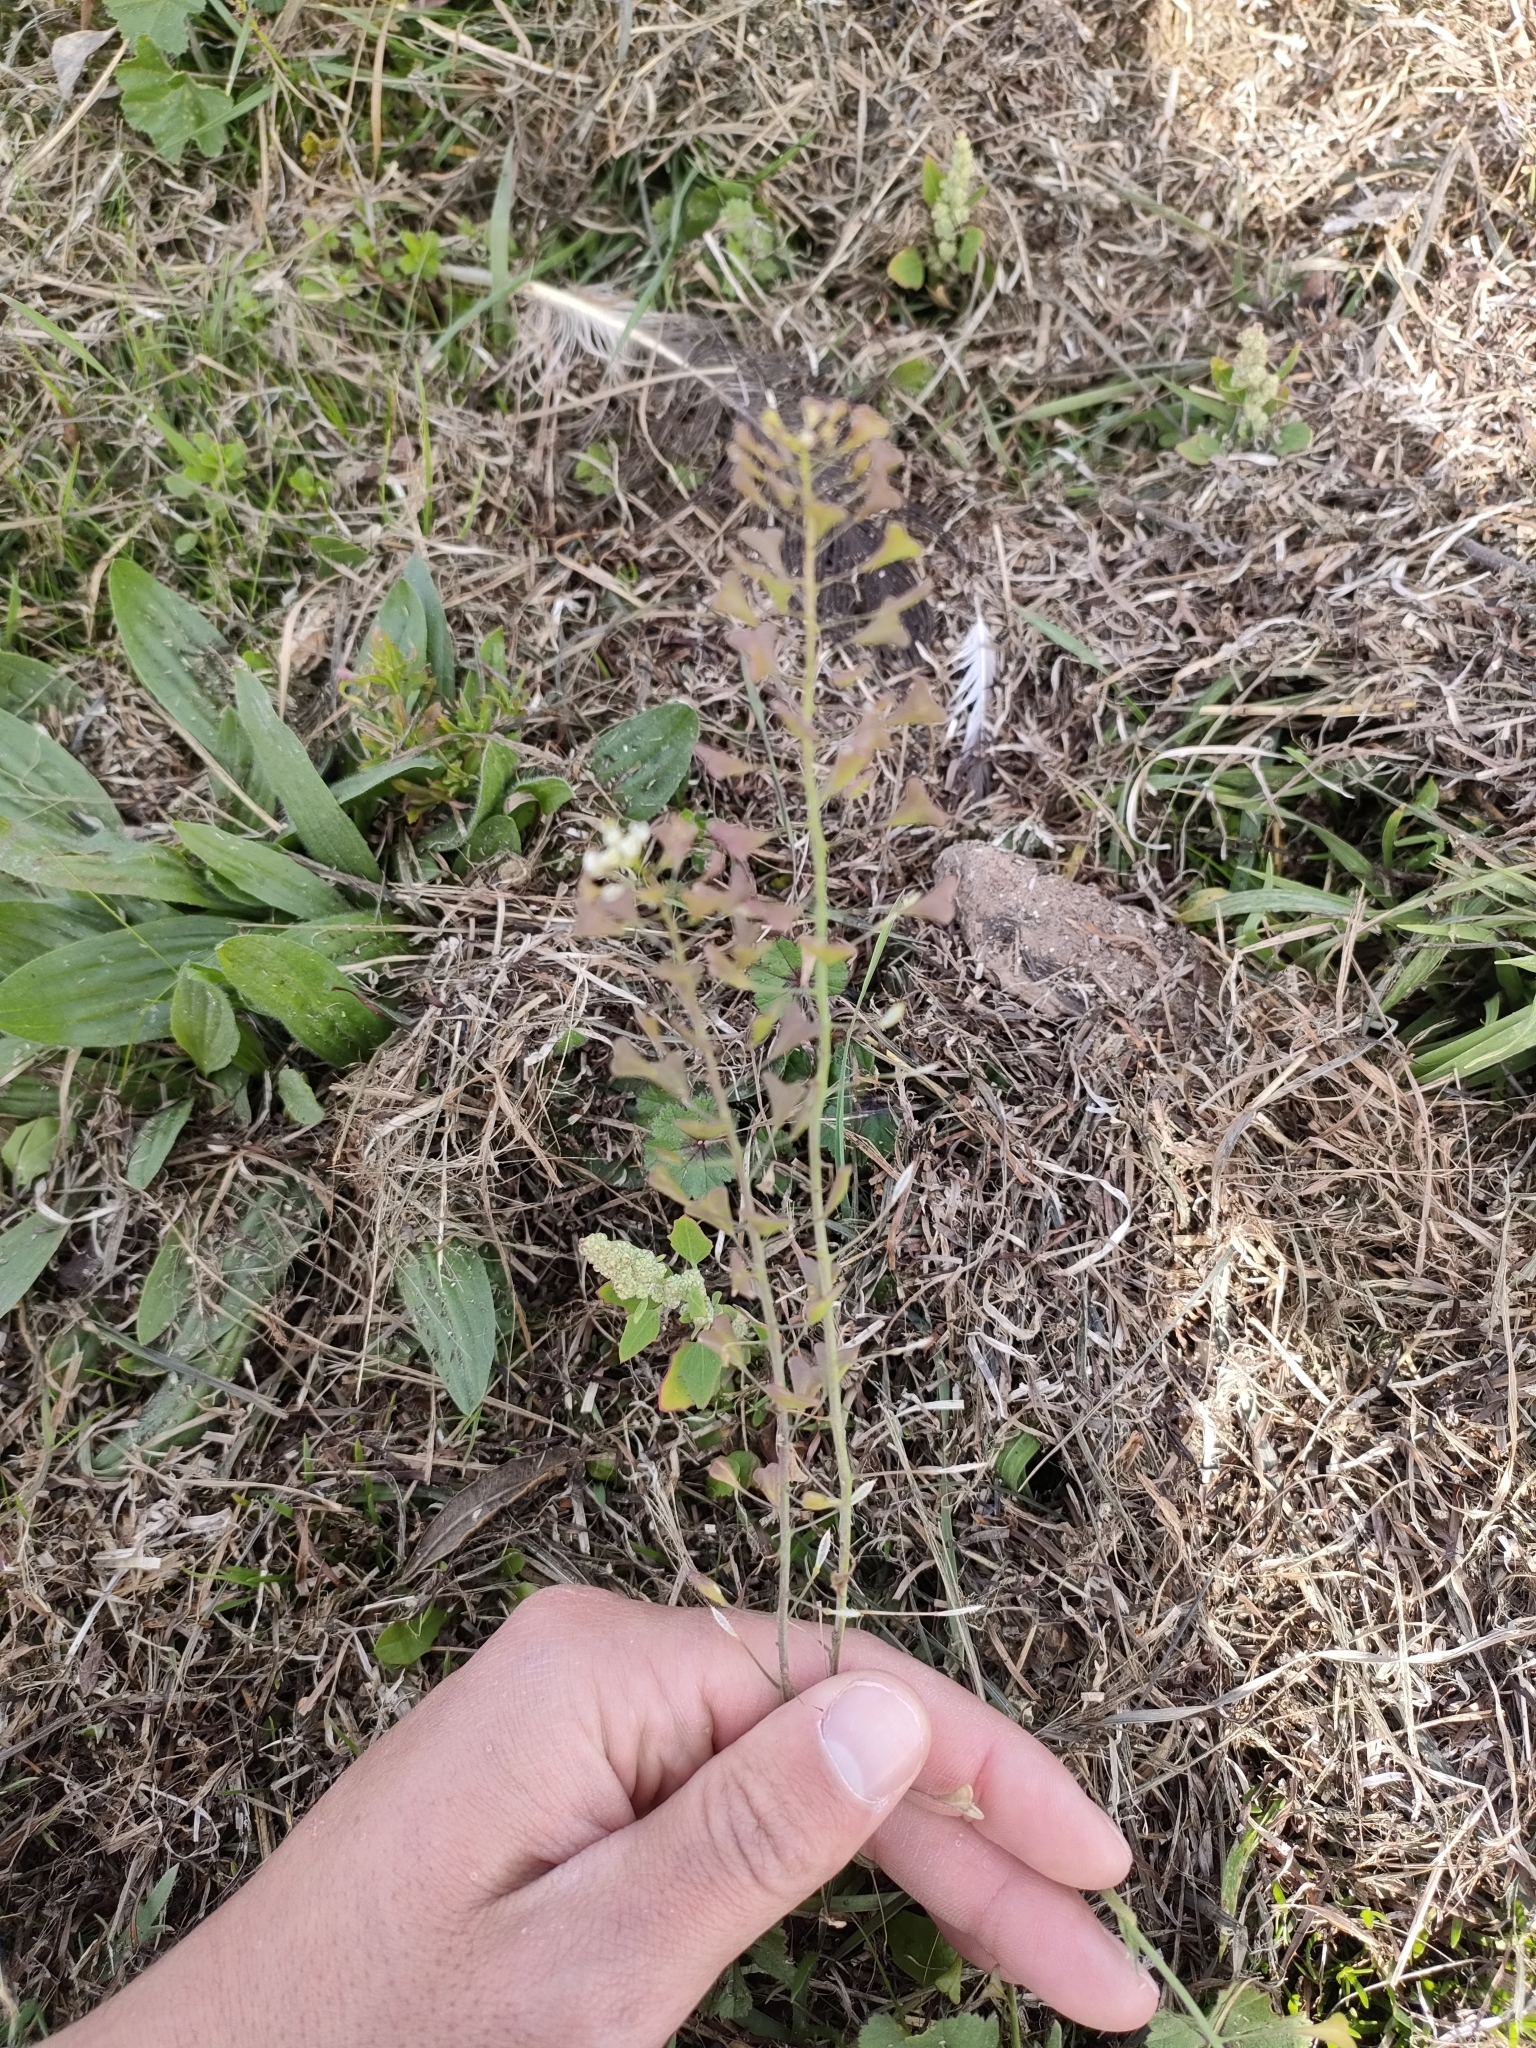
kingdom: Plantae
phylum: Tracheophyta
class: Magnoliopsida
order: Brassicales
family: Brassicaceae
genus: Capsella
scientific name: Capsella bursa-pastoris
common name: Shepherd's purse
